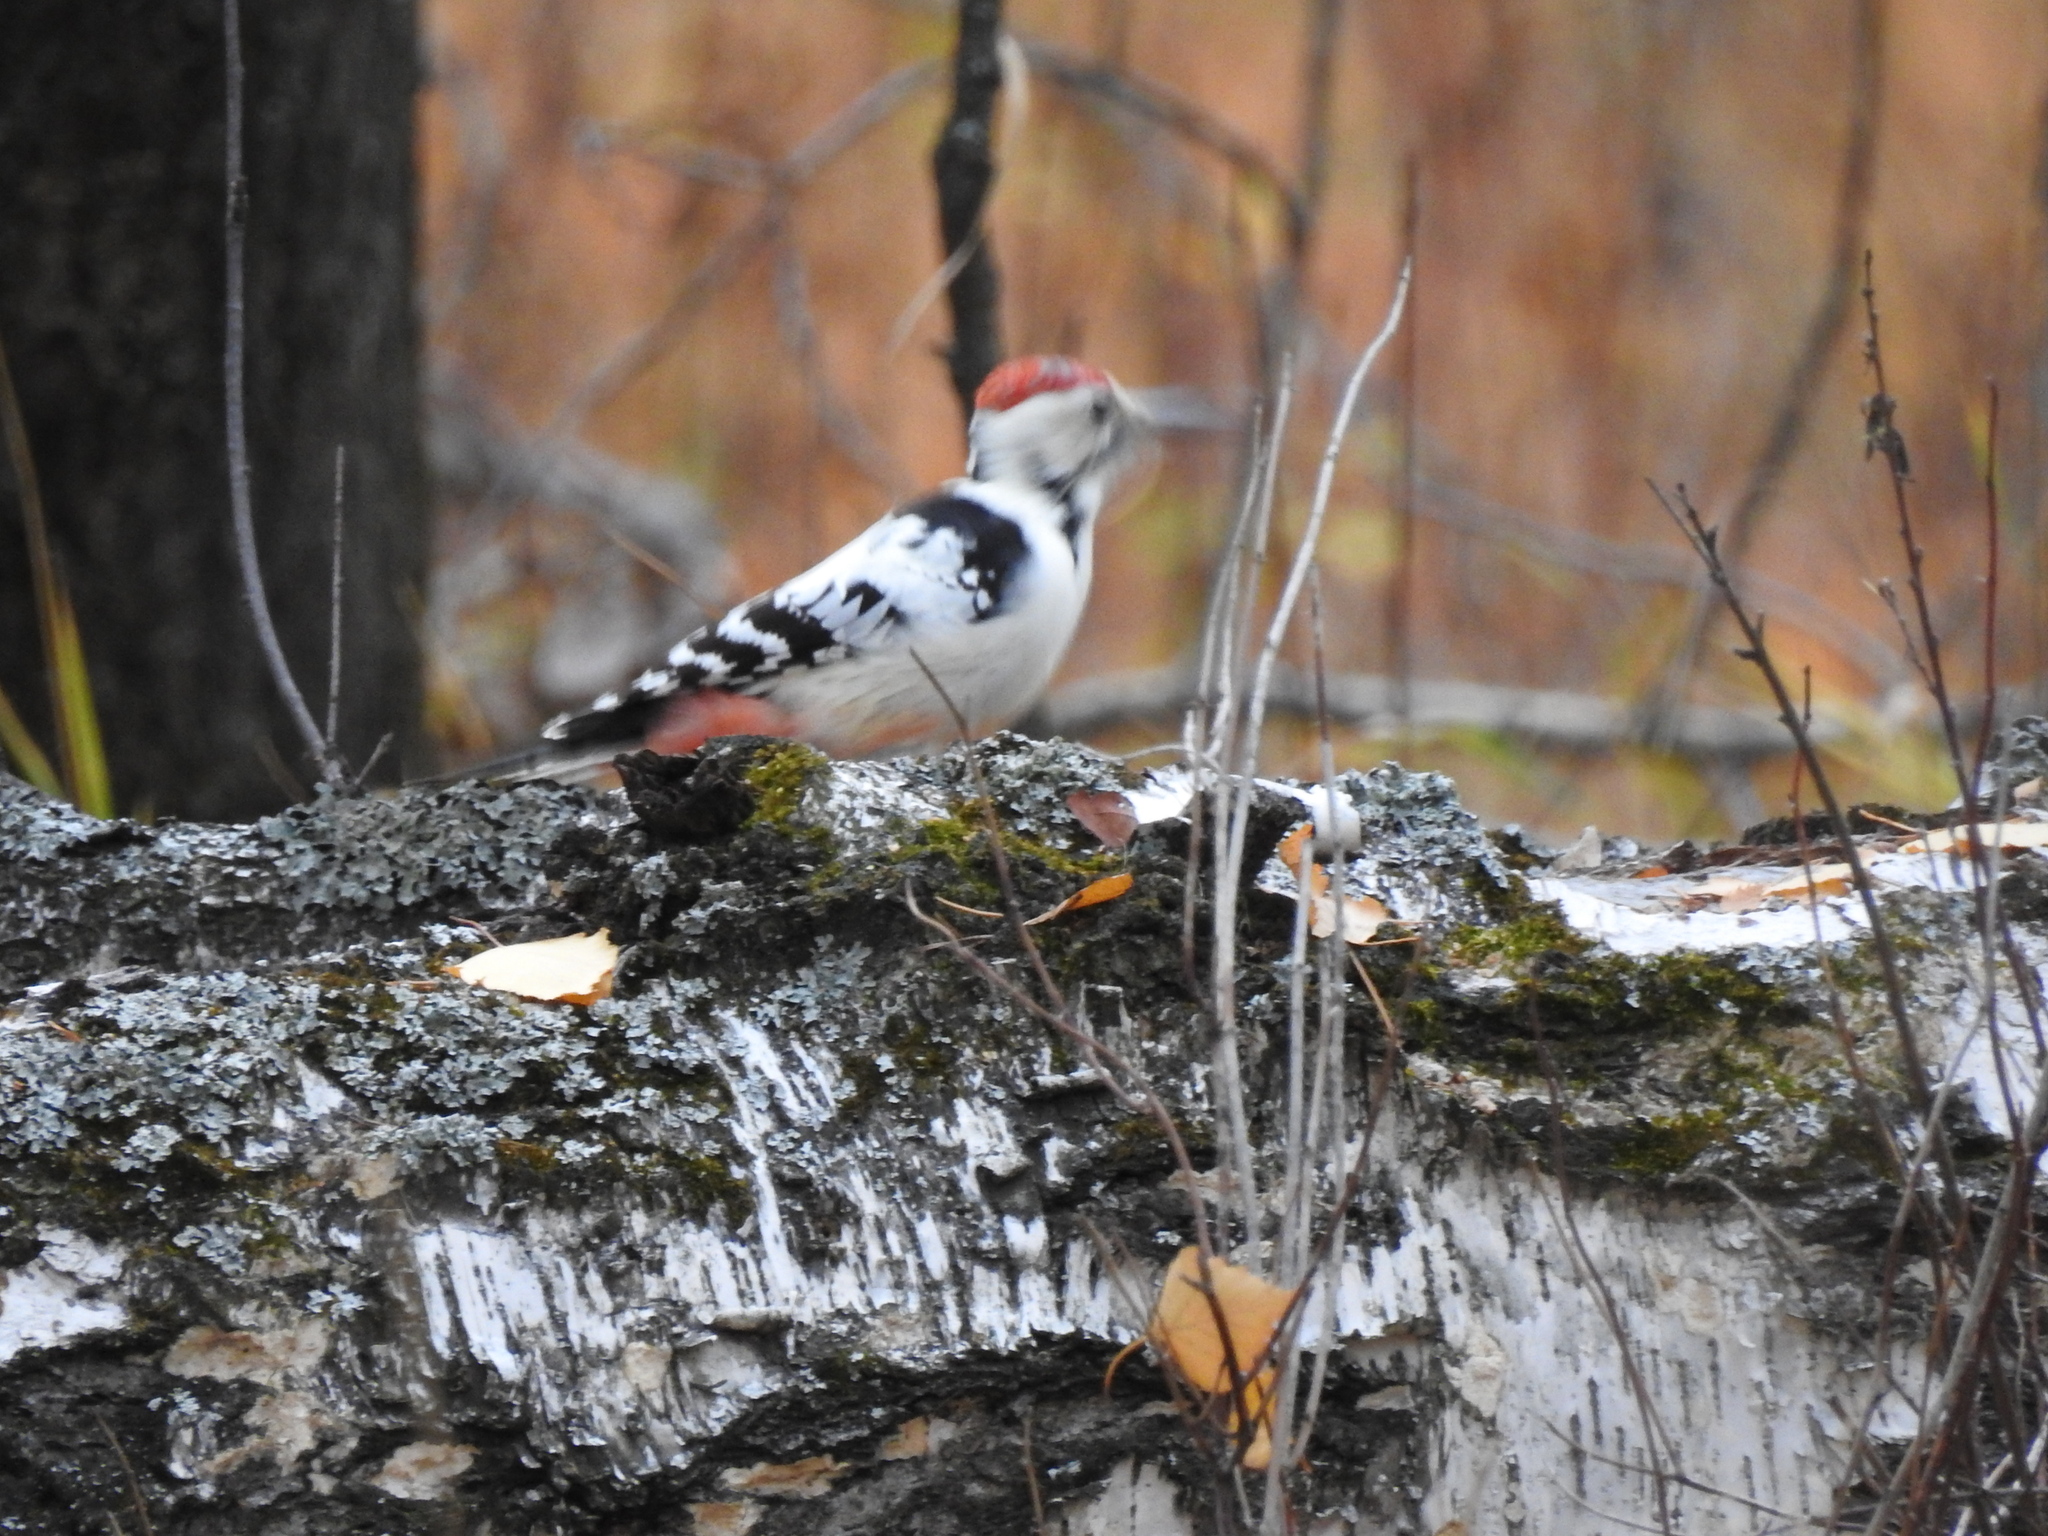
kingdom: Animalia
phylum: Chordata
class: Aves
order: Piciformes
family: Picidae
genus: Dendrocopos
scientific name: Dendrocopos leucotos
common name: White-backed woodpecker
